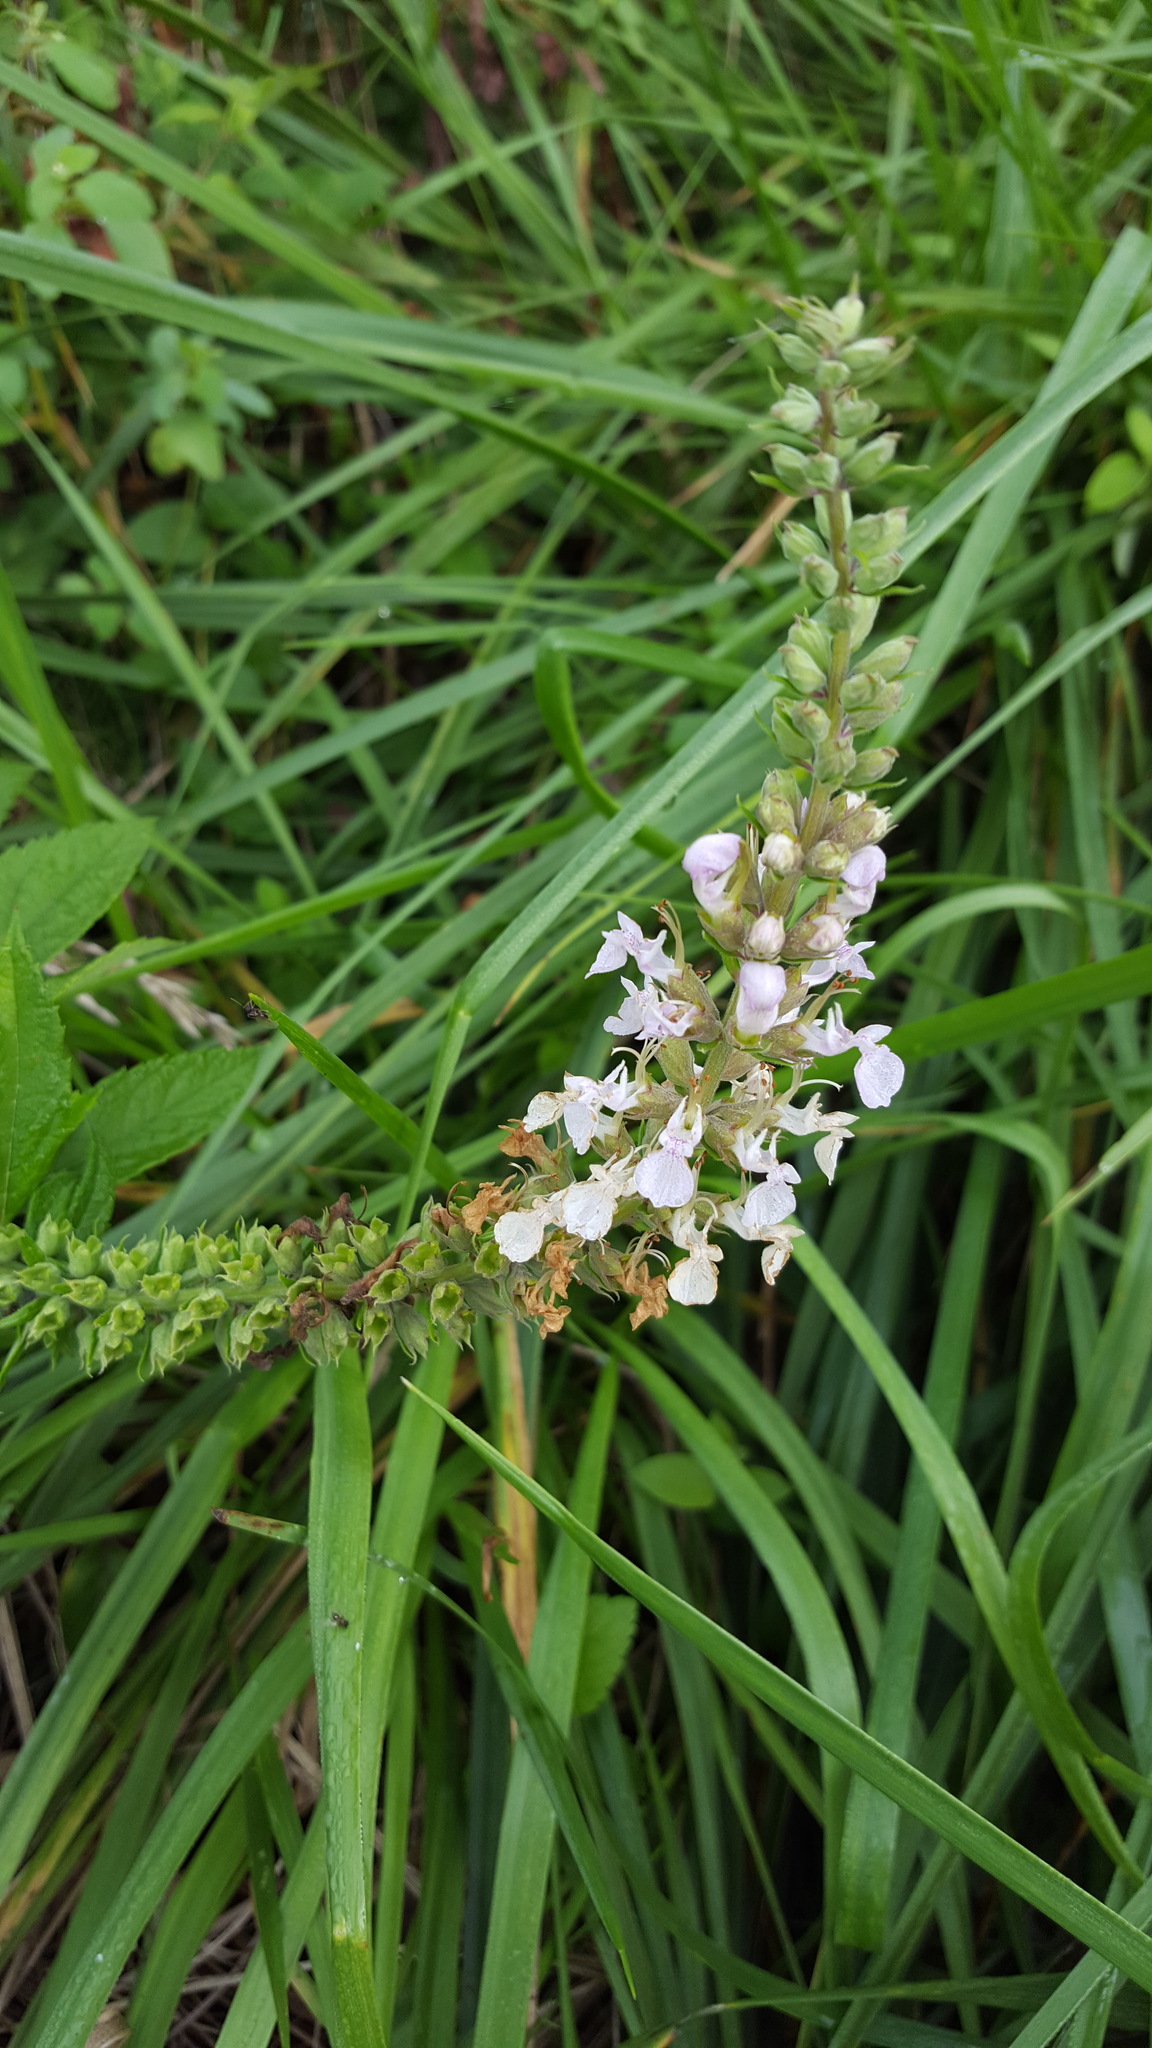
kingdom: Plantae
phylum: Tracheophyta
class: Magnoliopsida
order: Lamiales
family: Lamiaceae
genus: Teucrium
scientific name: Teucrium canadense
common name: American germander
